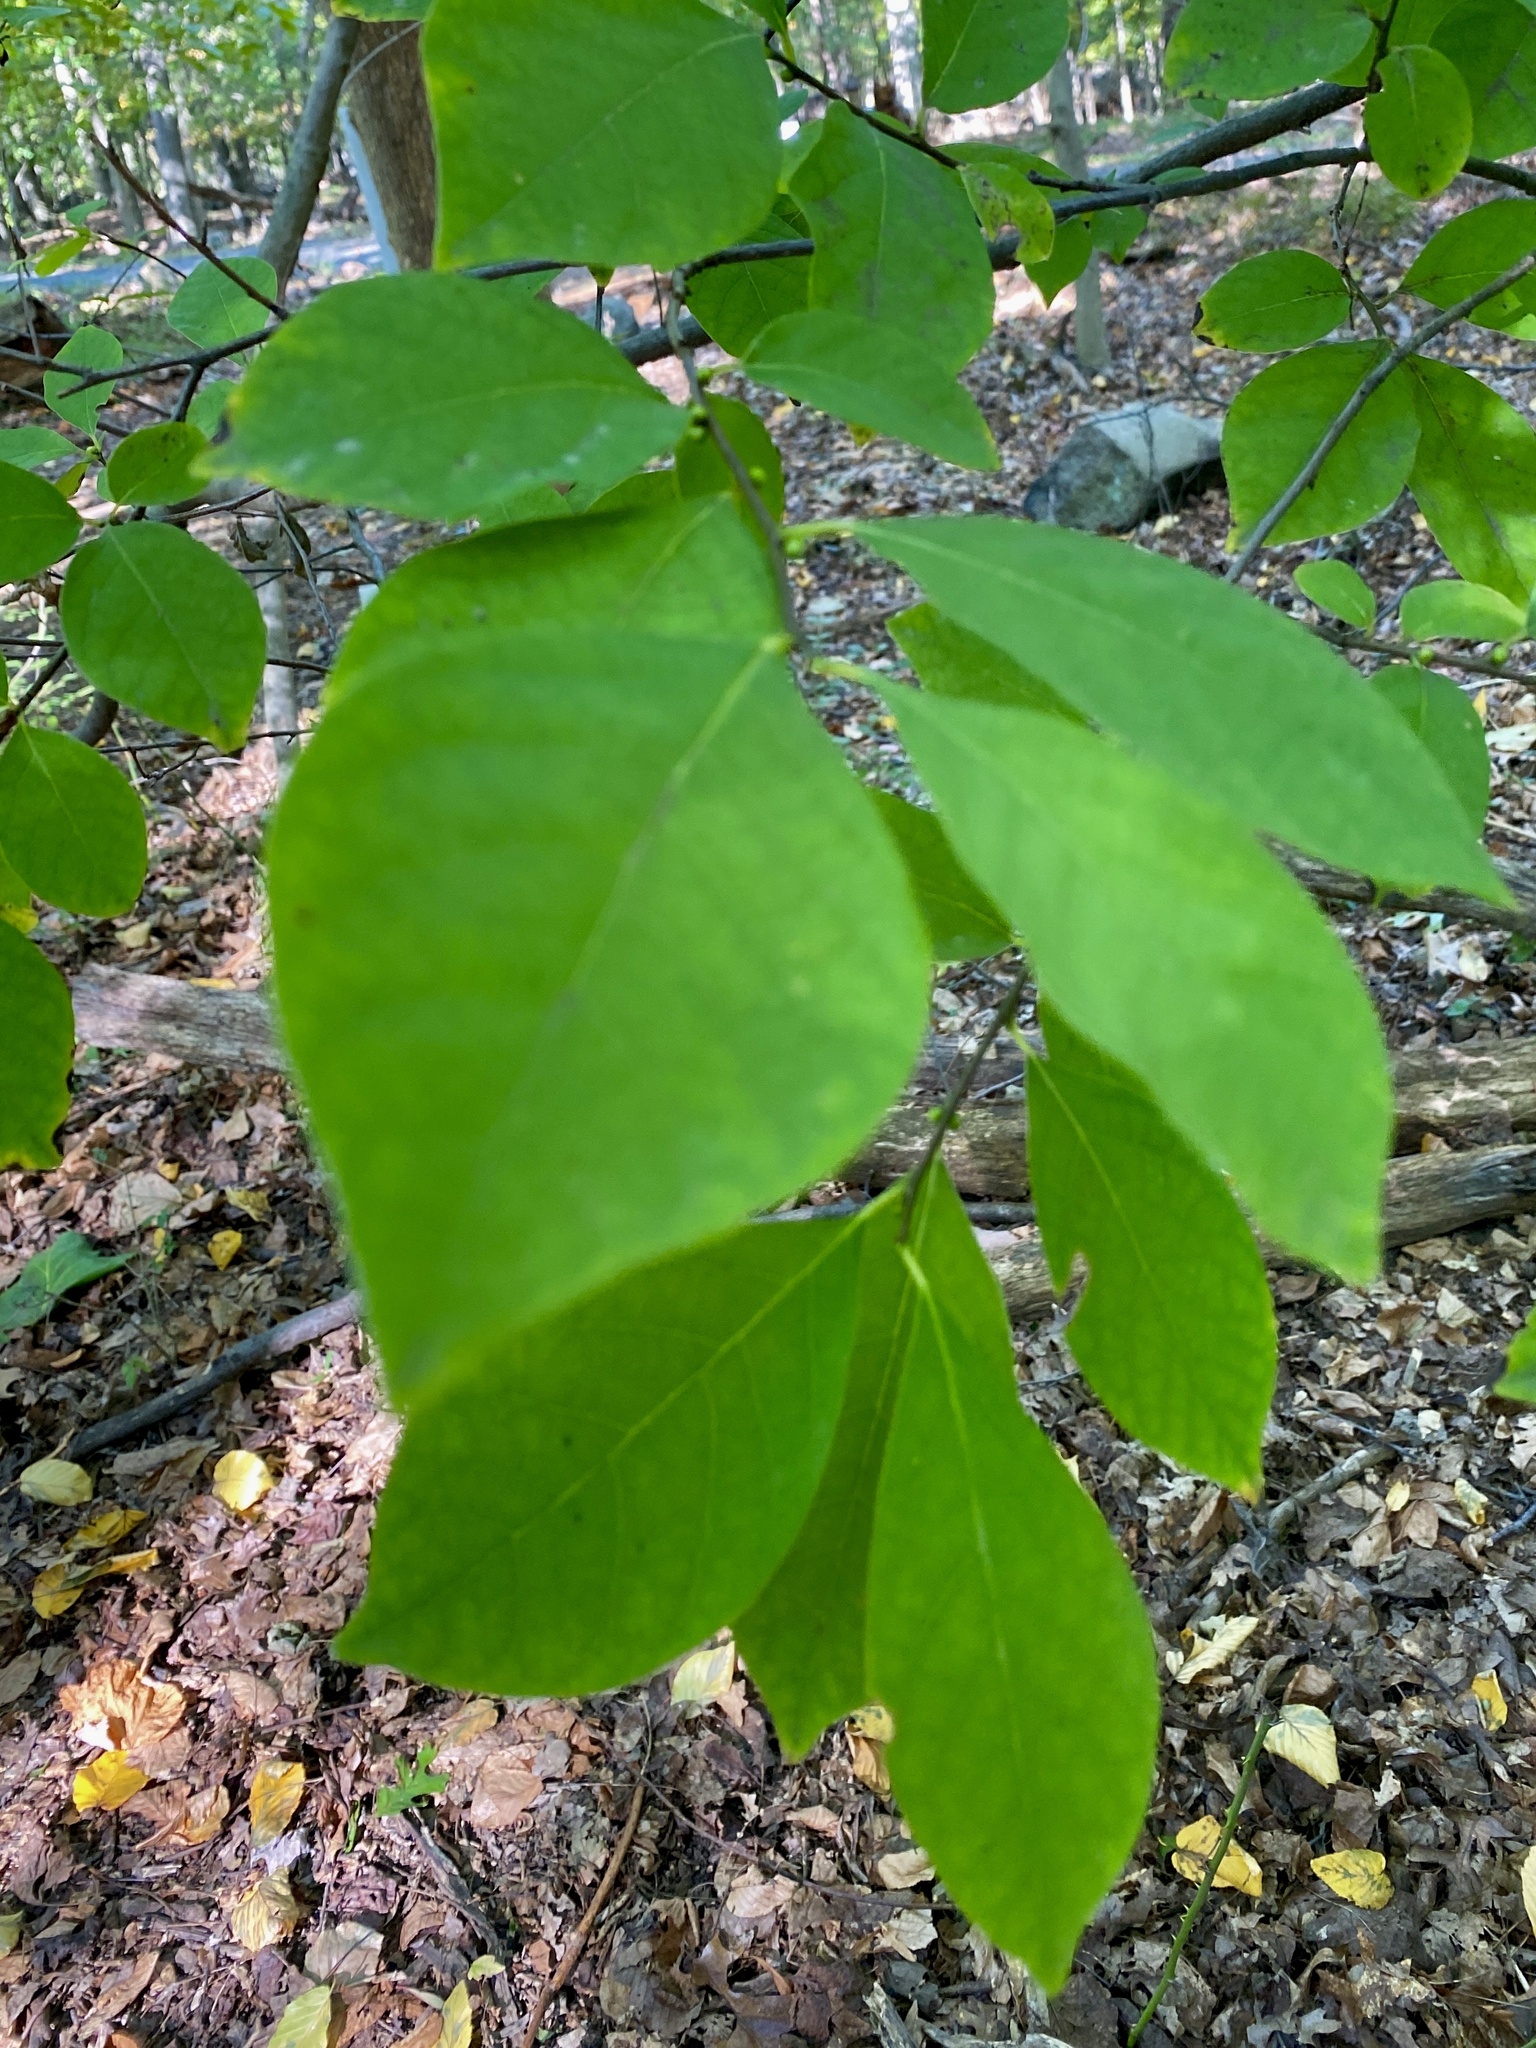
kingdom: Plantae
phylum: Tracheophyta
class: Magnoliopsida
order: Laurales
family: Lauraceae
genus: Lindera
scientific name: Lindera benzoin
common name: Spicebush
